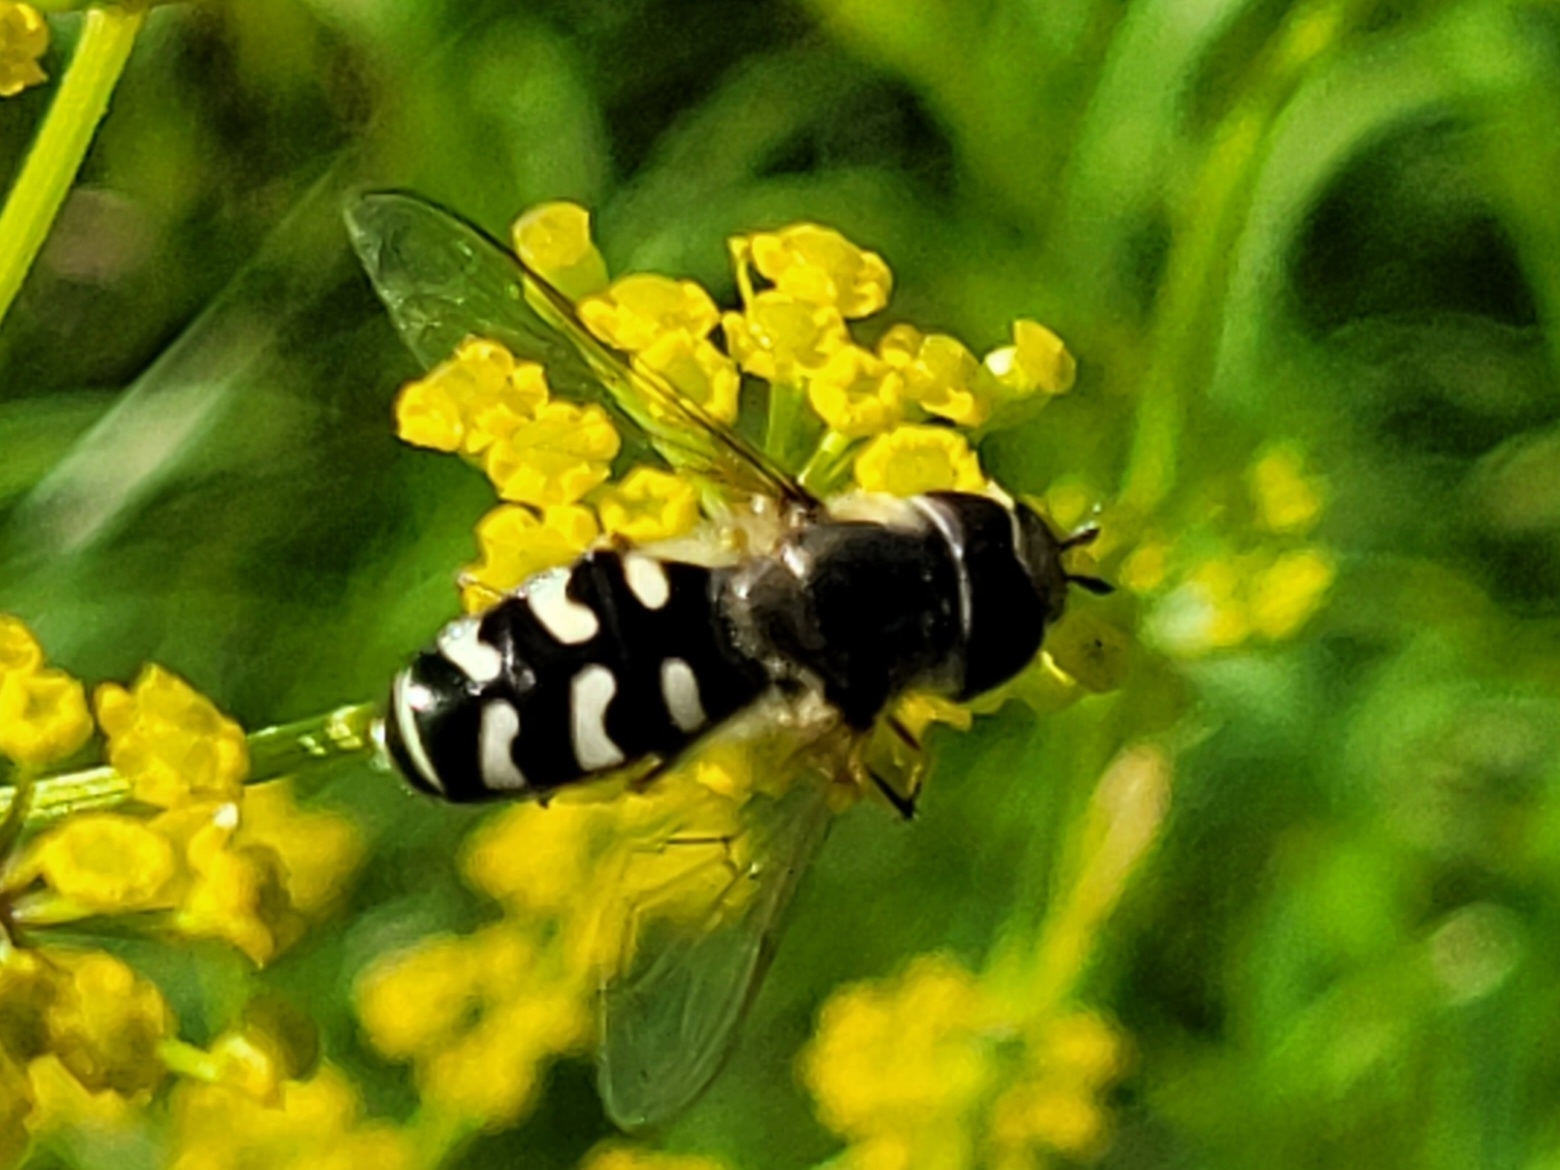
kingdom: Animalia
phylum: Arthropoda
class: Insecta
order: Diptera
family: Syrphidae
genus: Scaeva
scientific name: Scaeva pyrastri
